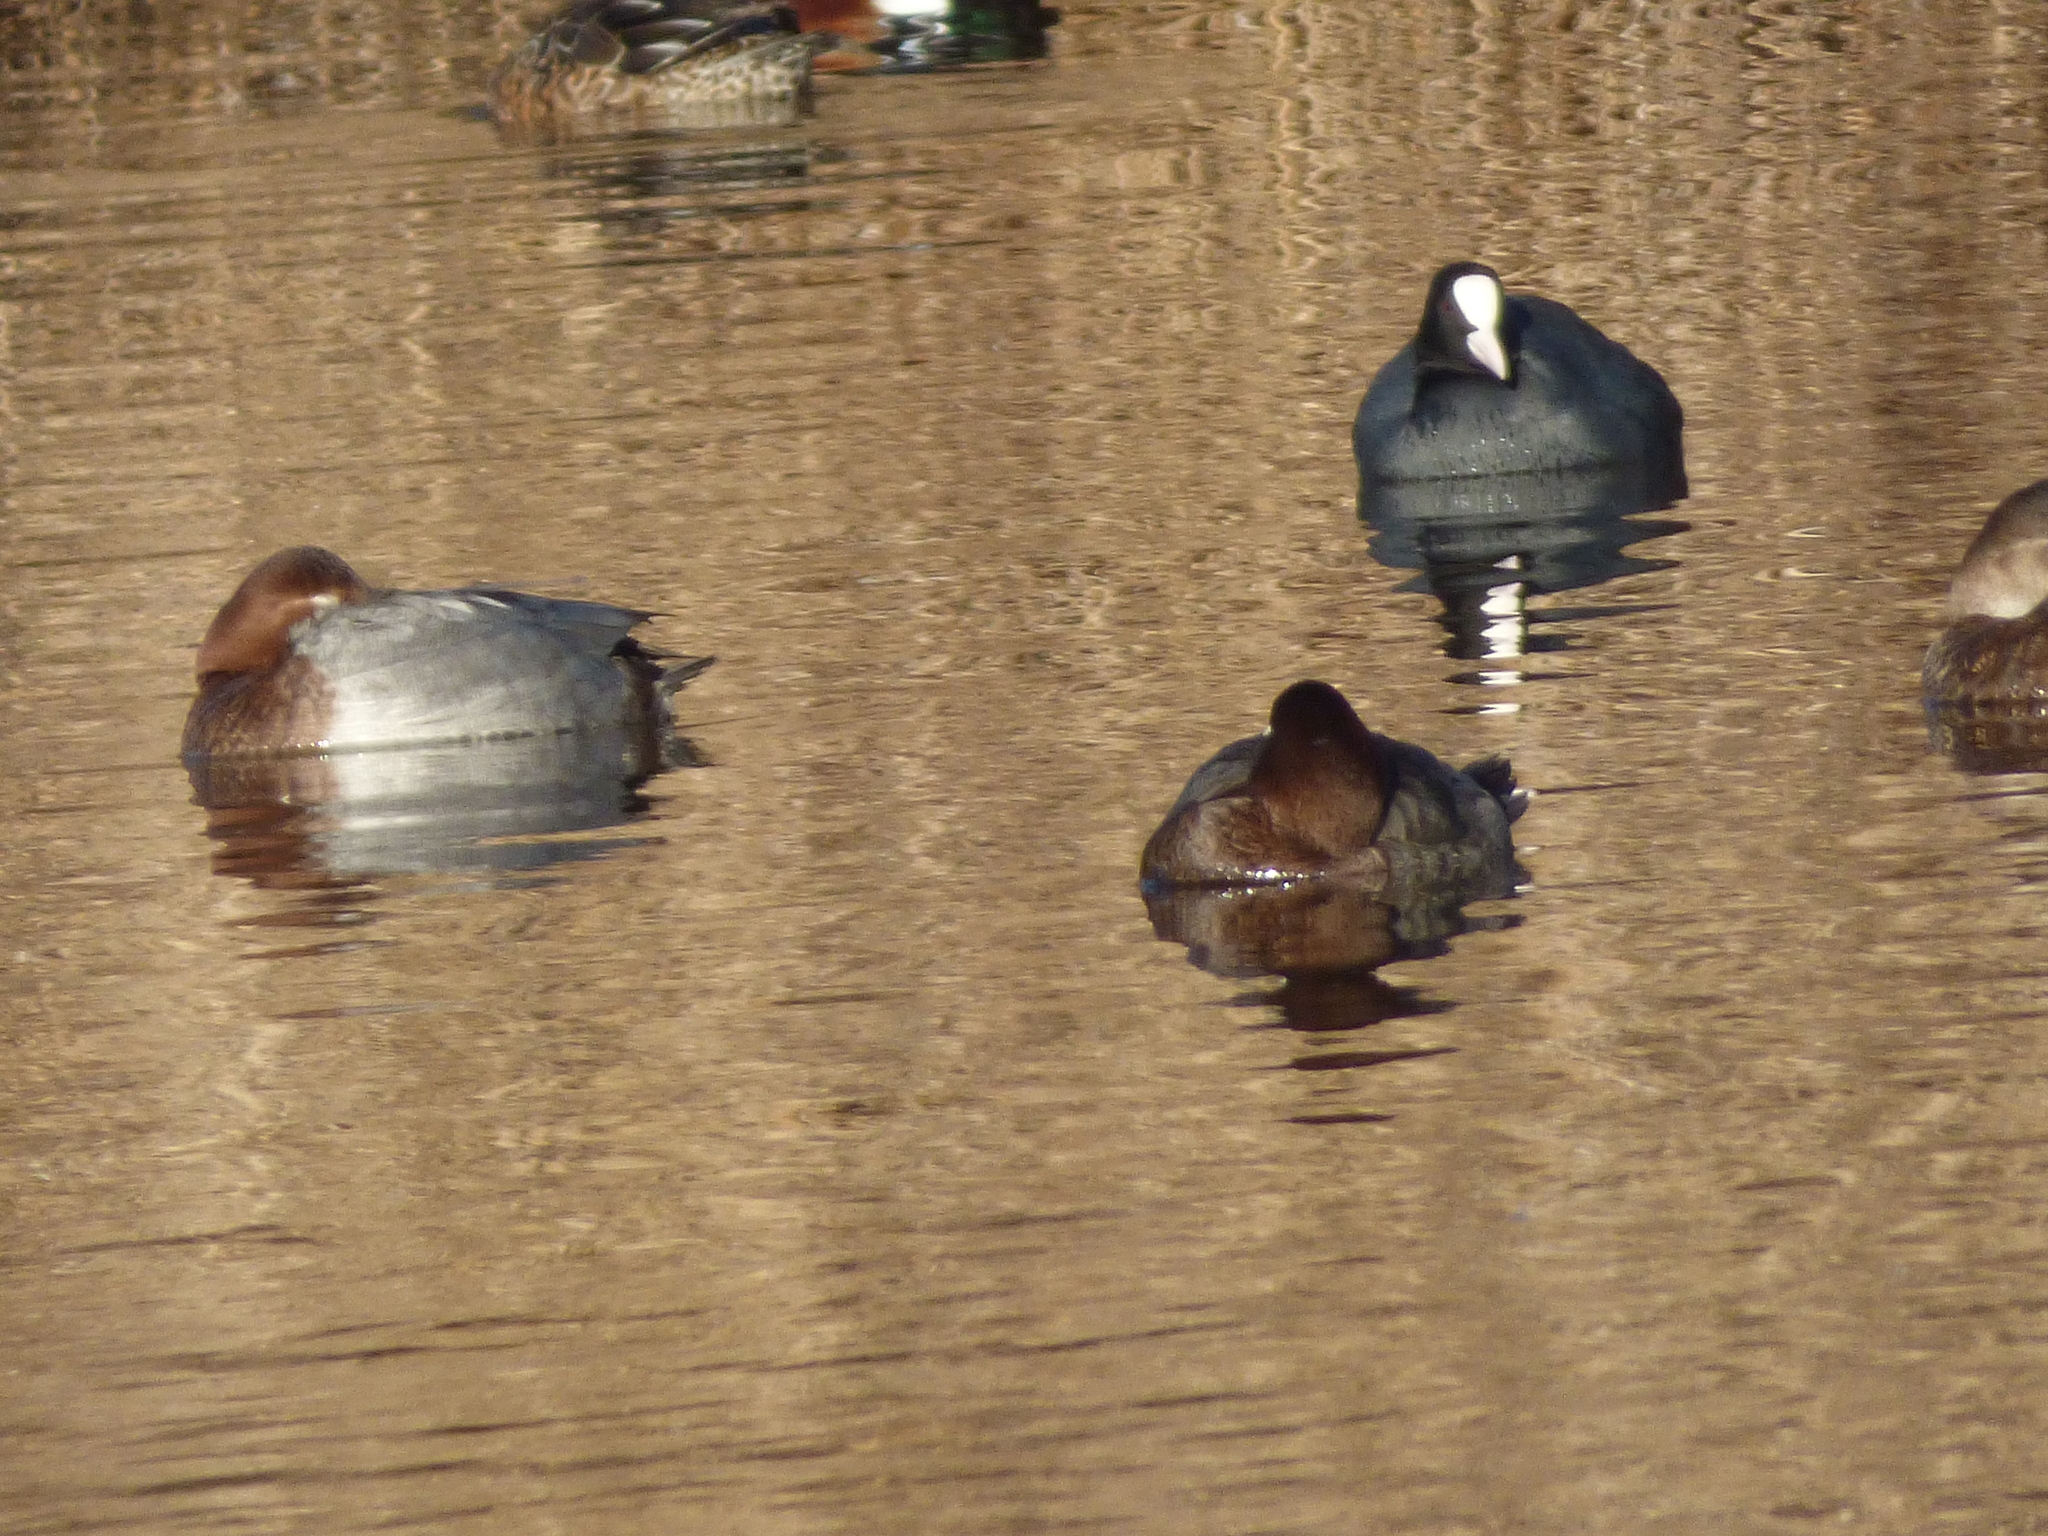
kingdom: Animalia
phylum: Chordata
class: Aves
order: Gruiformes
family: Rallidae
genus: Fulica
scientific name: Fulica atra
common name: Eurasian coot
